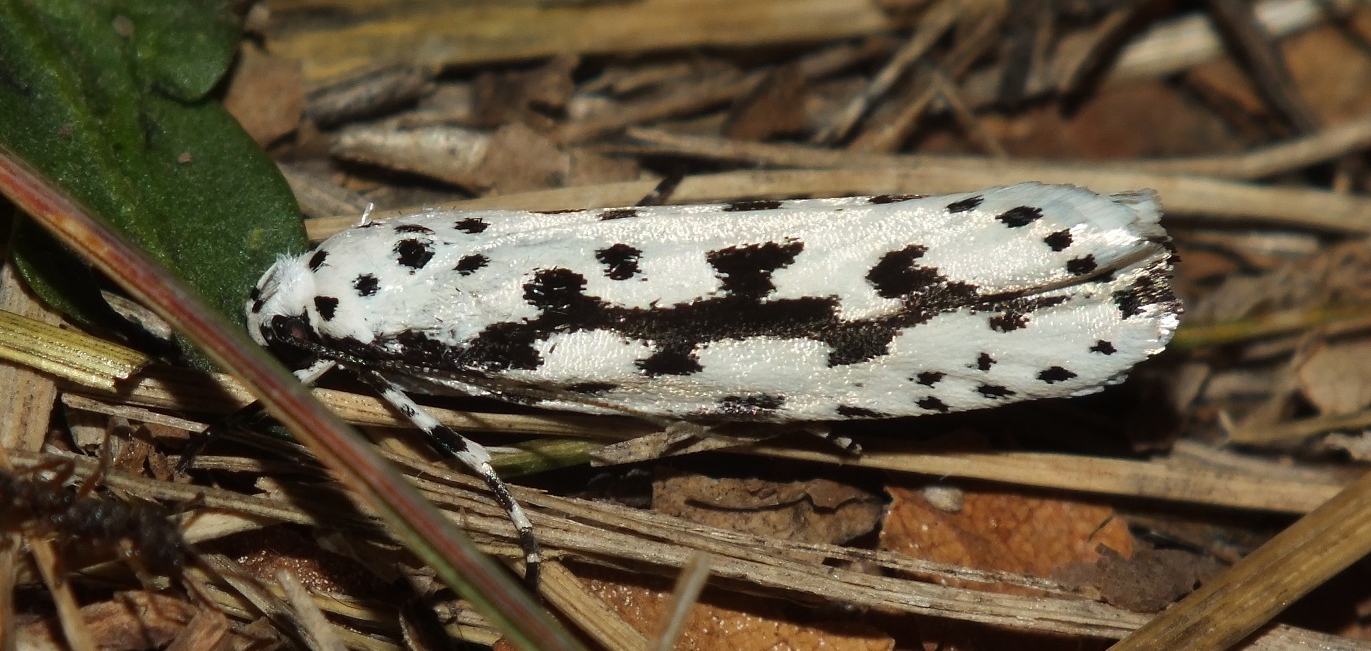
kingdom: Animalia
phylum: Arthropoda
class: Insecta
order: Lepidoptera
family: Ethmiidae
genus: Ethmia
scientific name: Ethmia pusiella
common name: Striped ermel
